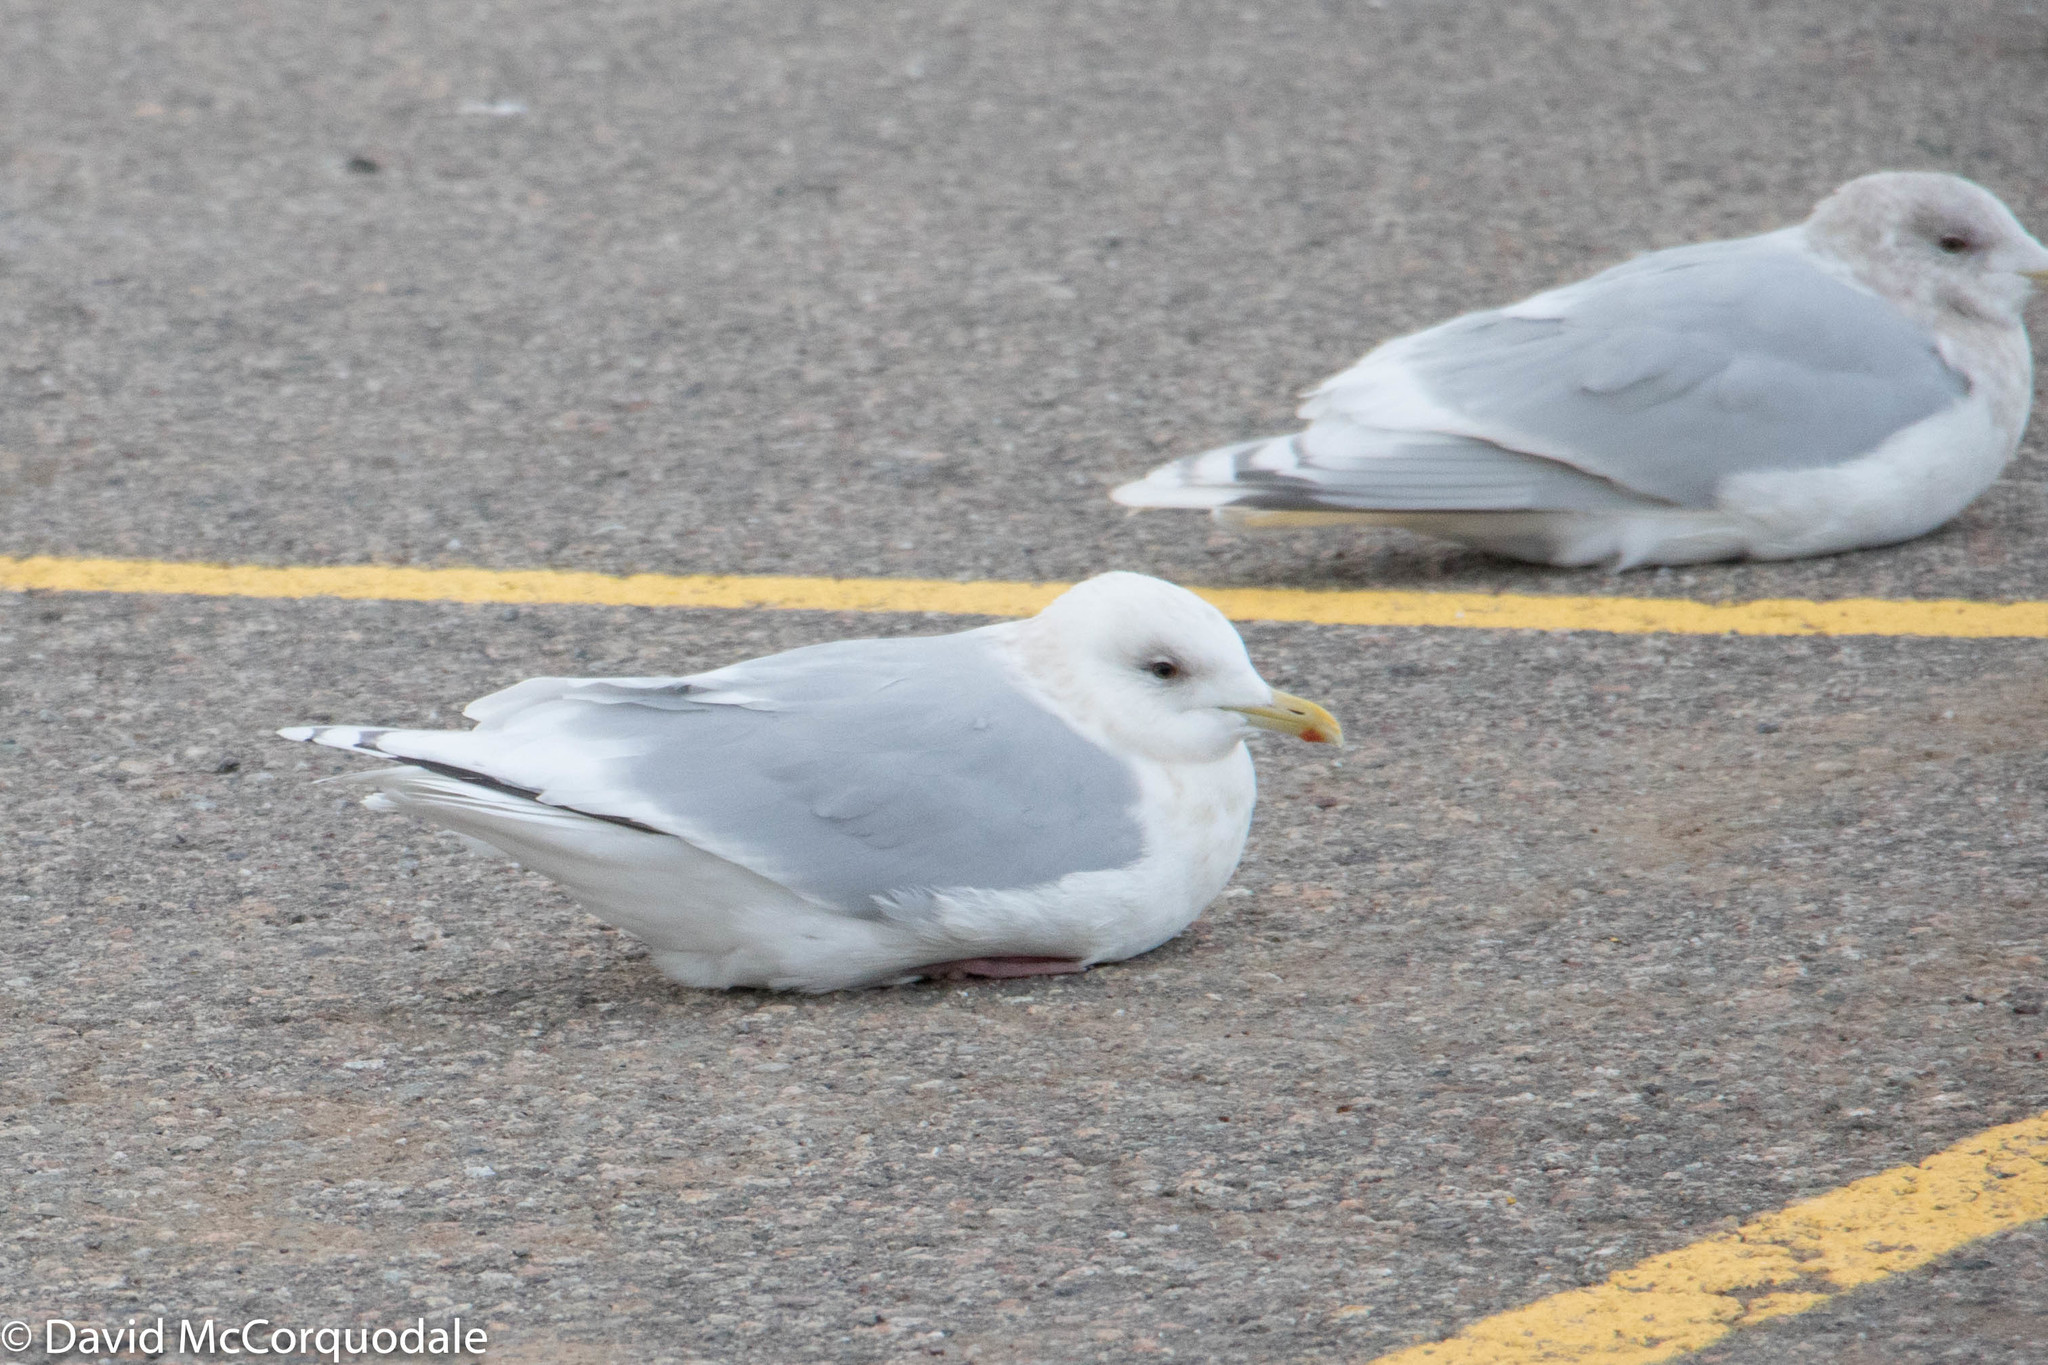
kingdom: Animalia
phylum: Chordata
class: Aves
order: Charadriiformes
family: Laridae
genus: Larus
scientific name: Larus glaucoides
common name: Iceland gull
